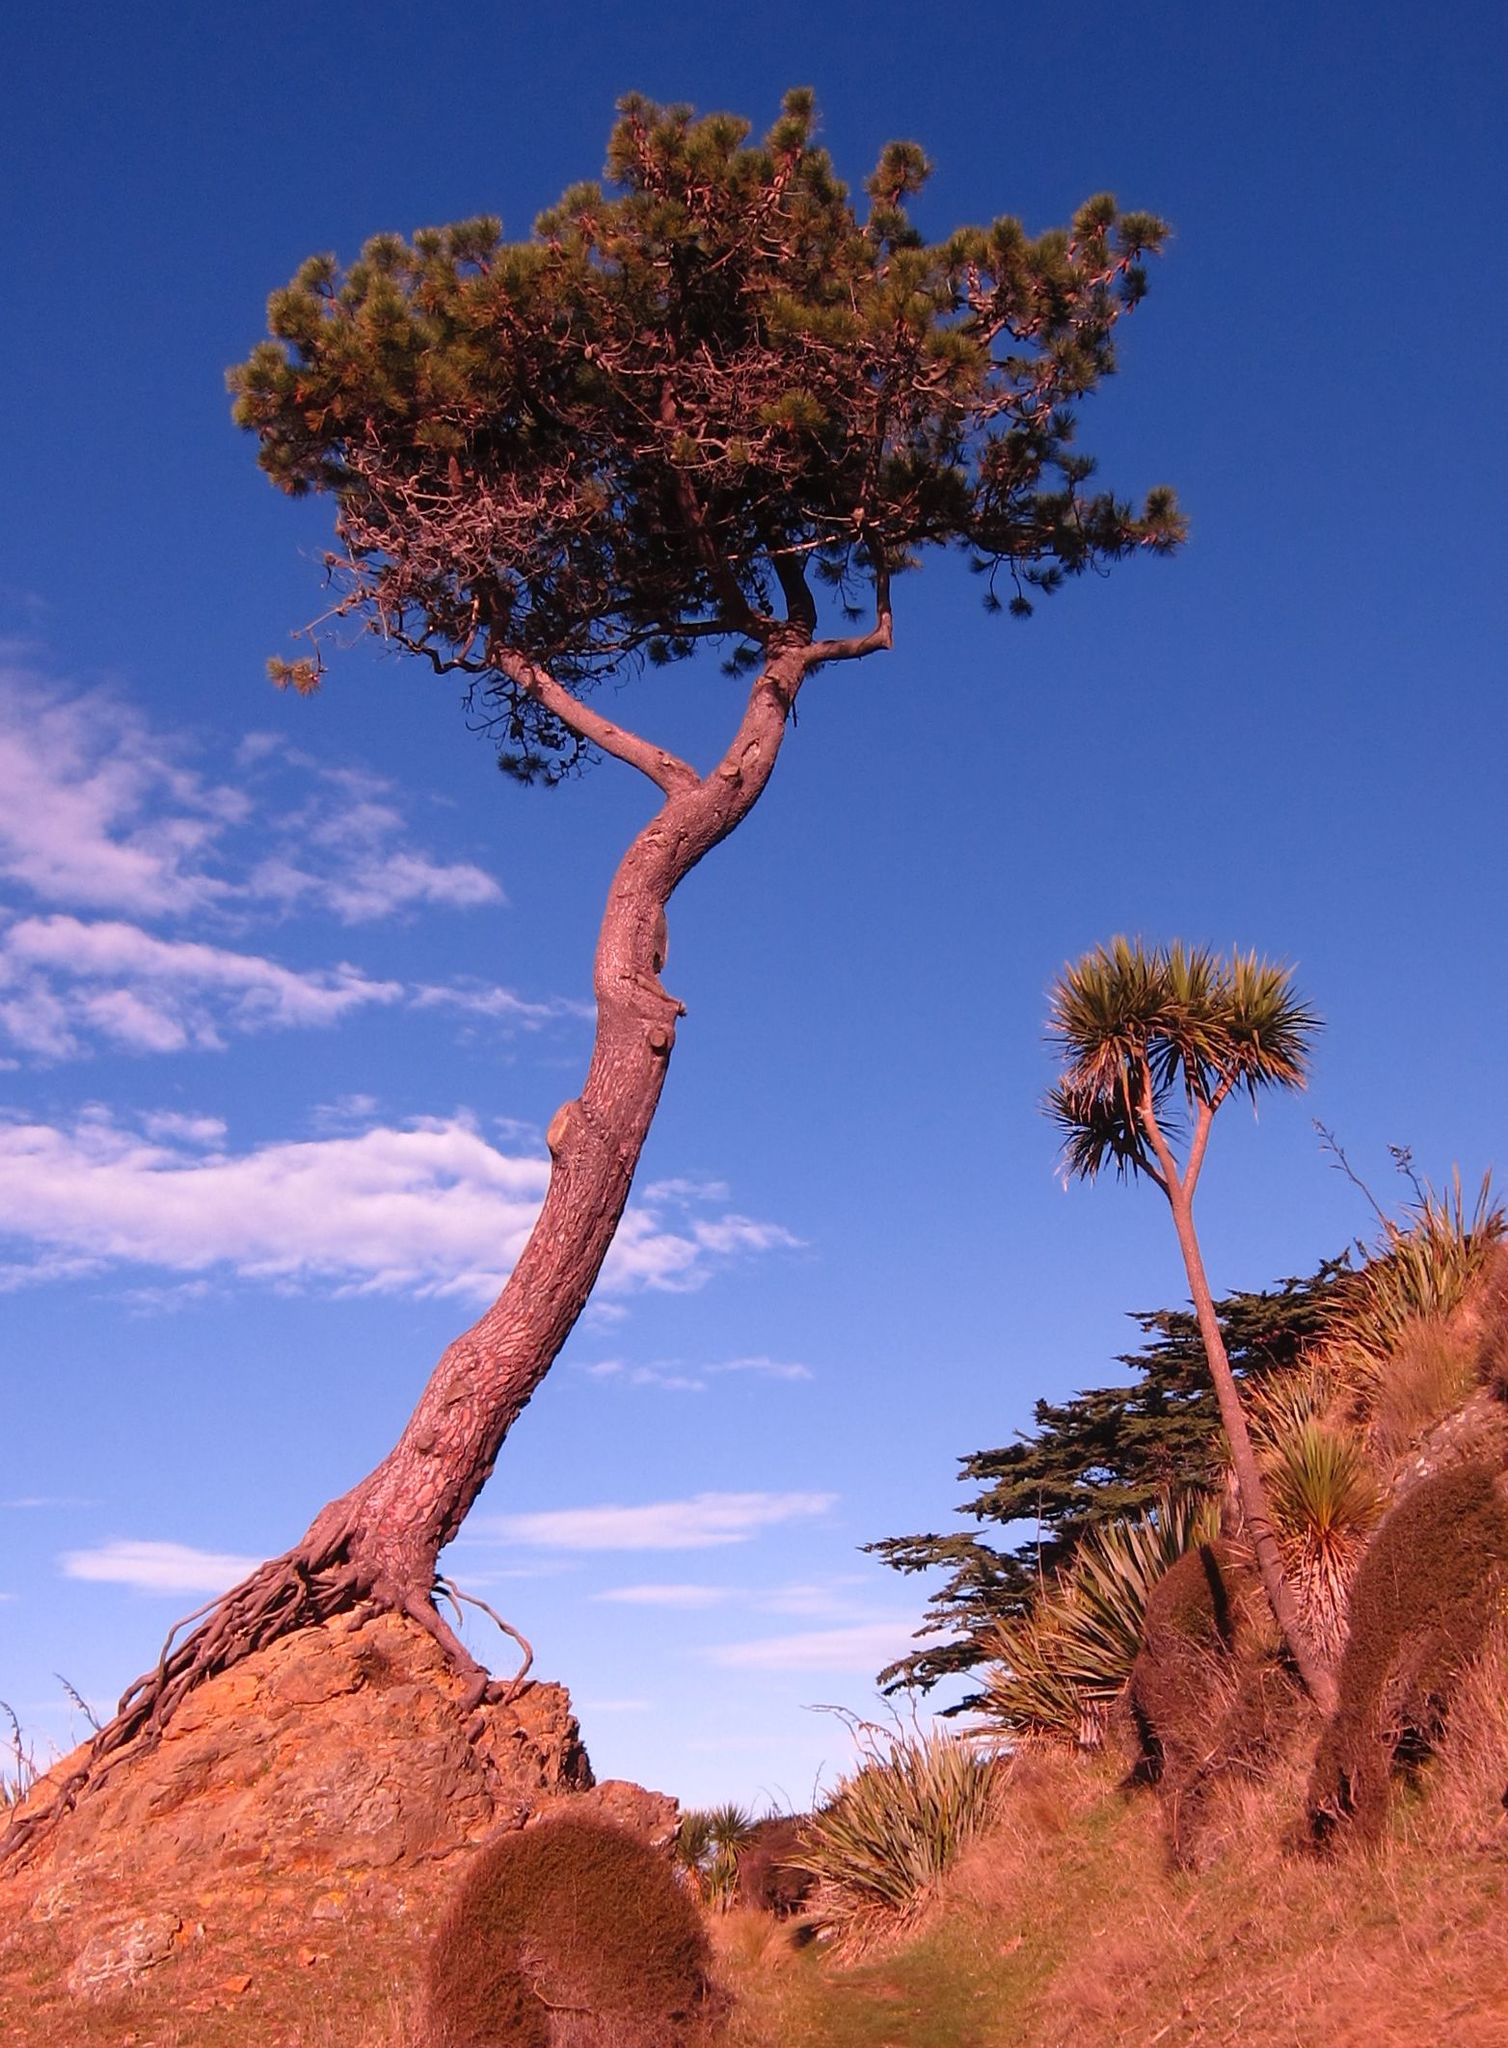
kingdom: Plantae
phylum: Tracheophyta
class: Liliopsida
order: Asparagales
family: Asparagaceae
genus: Cordyline
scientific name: Cordyline australis
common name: Cabbage-palm
